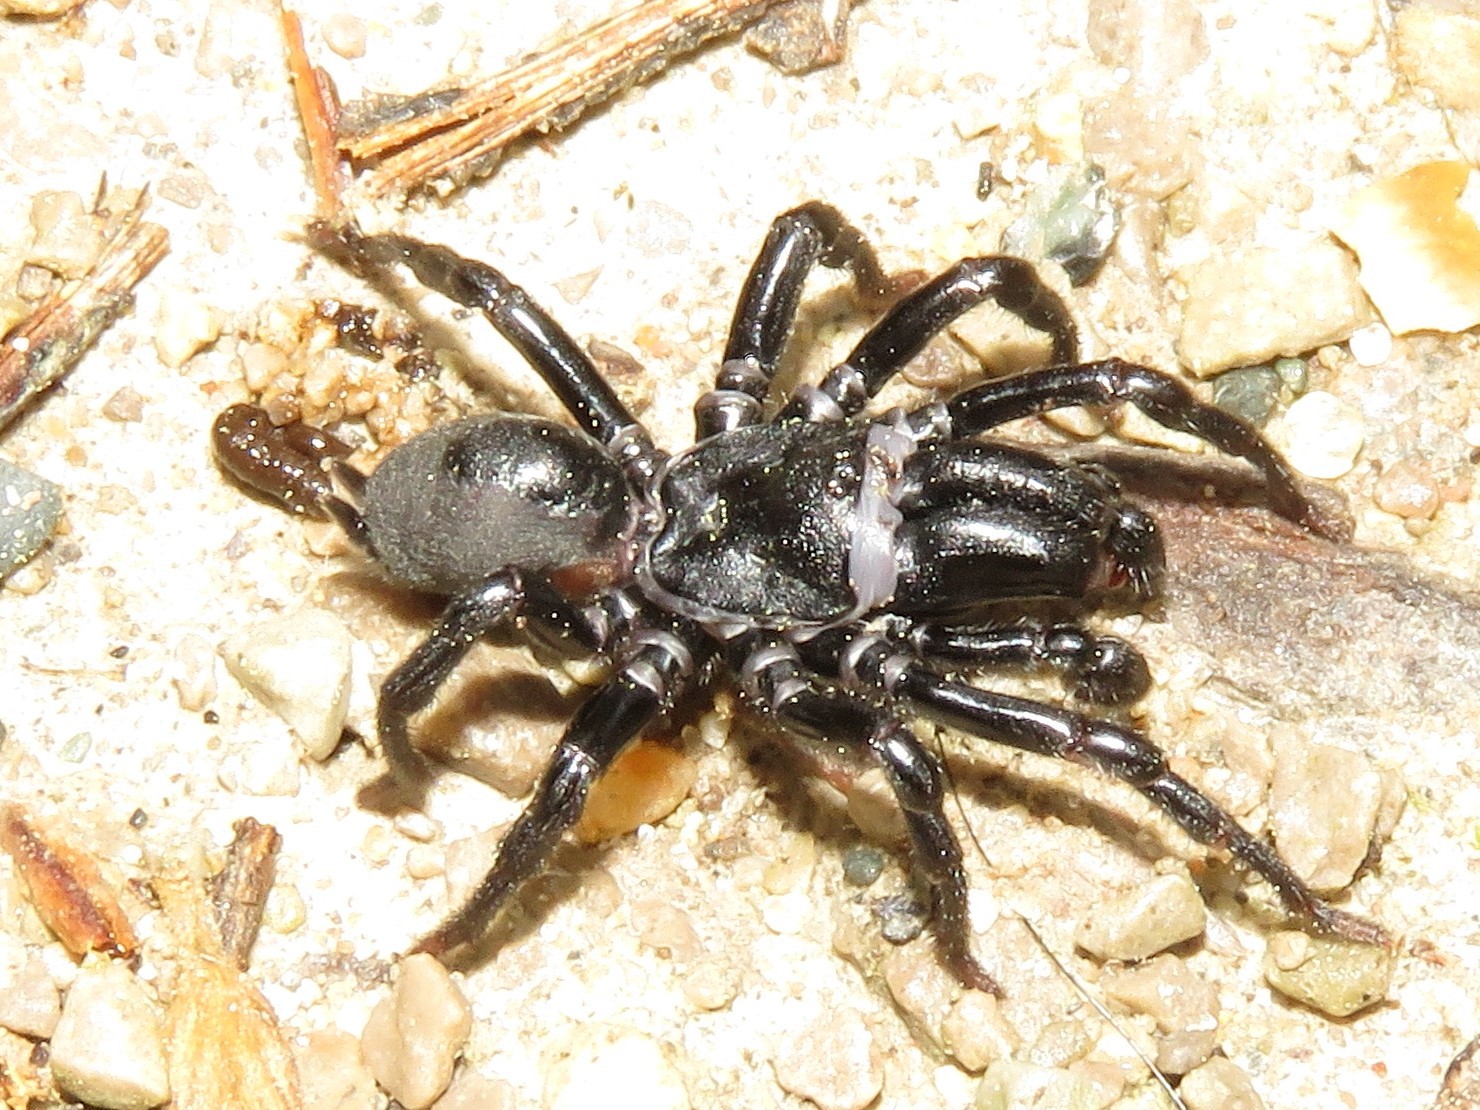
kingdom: Animalia
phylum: Arthropoda
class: Arachnida
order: Araneae
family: Atypidae
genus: Sphodros
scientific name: Sphodros niger
